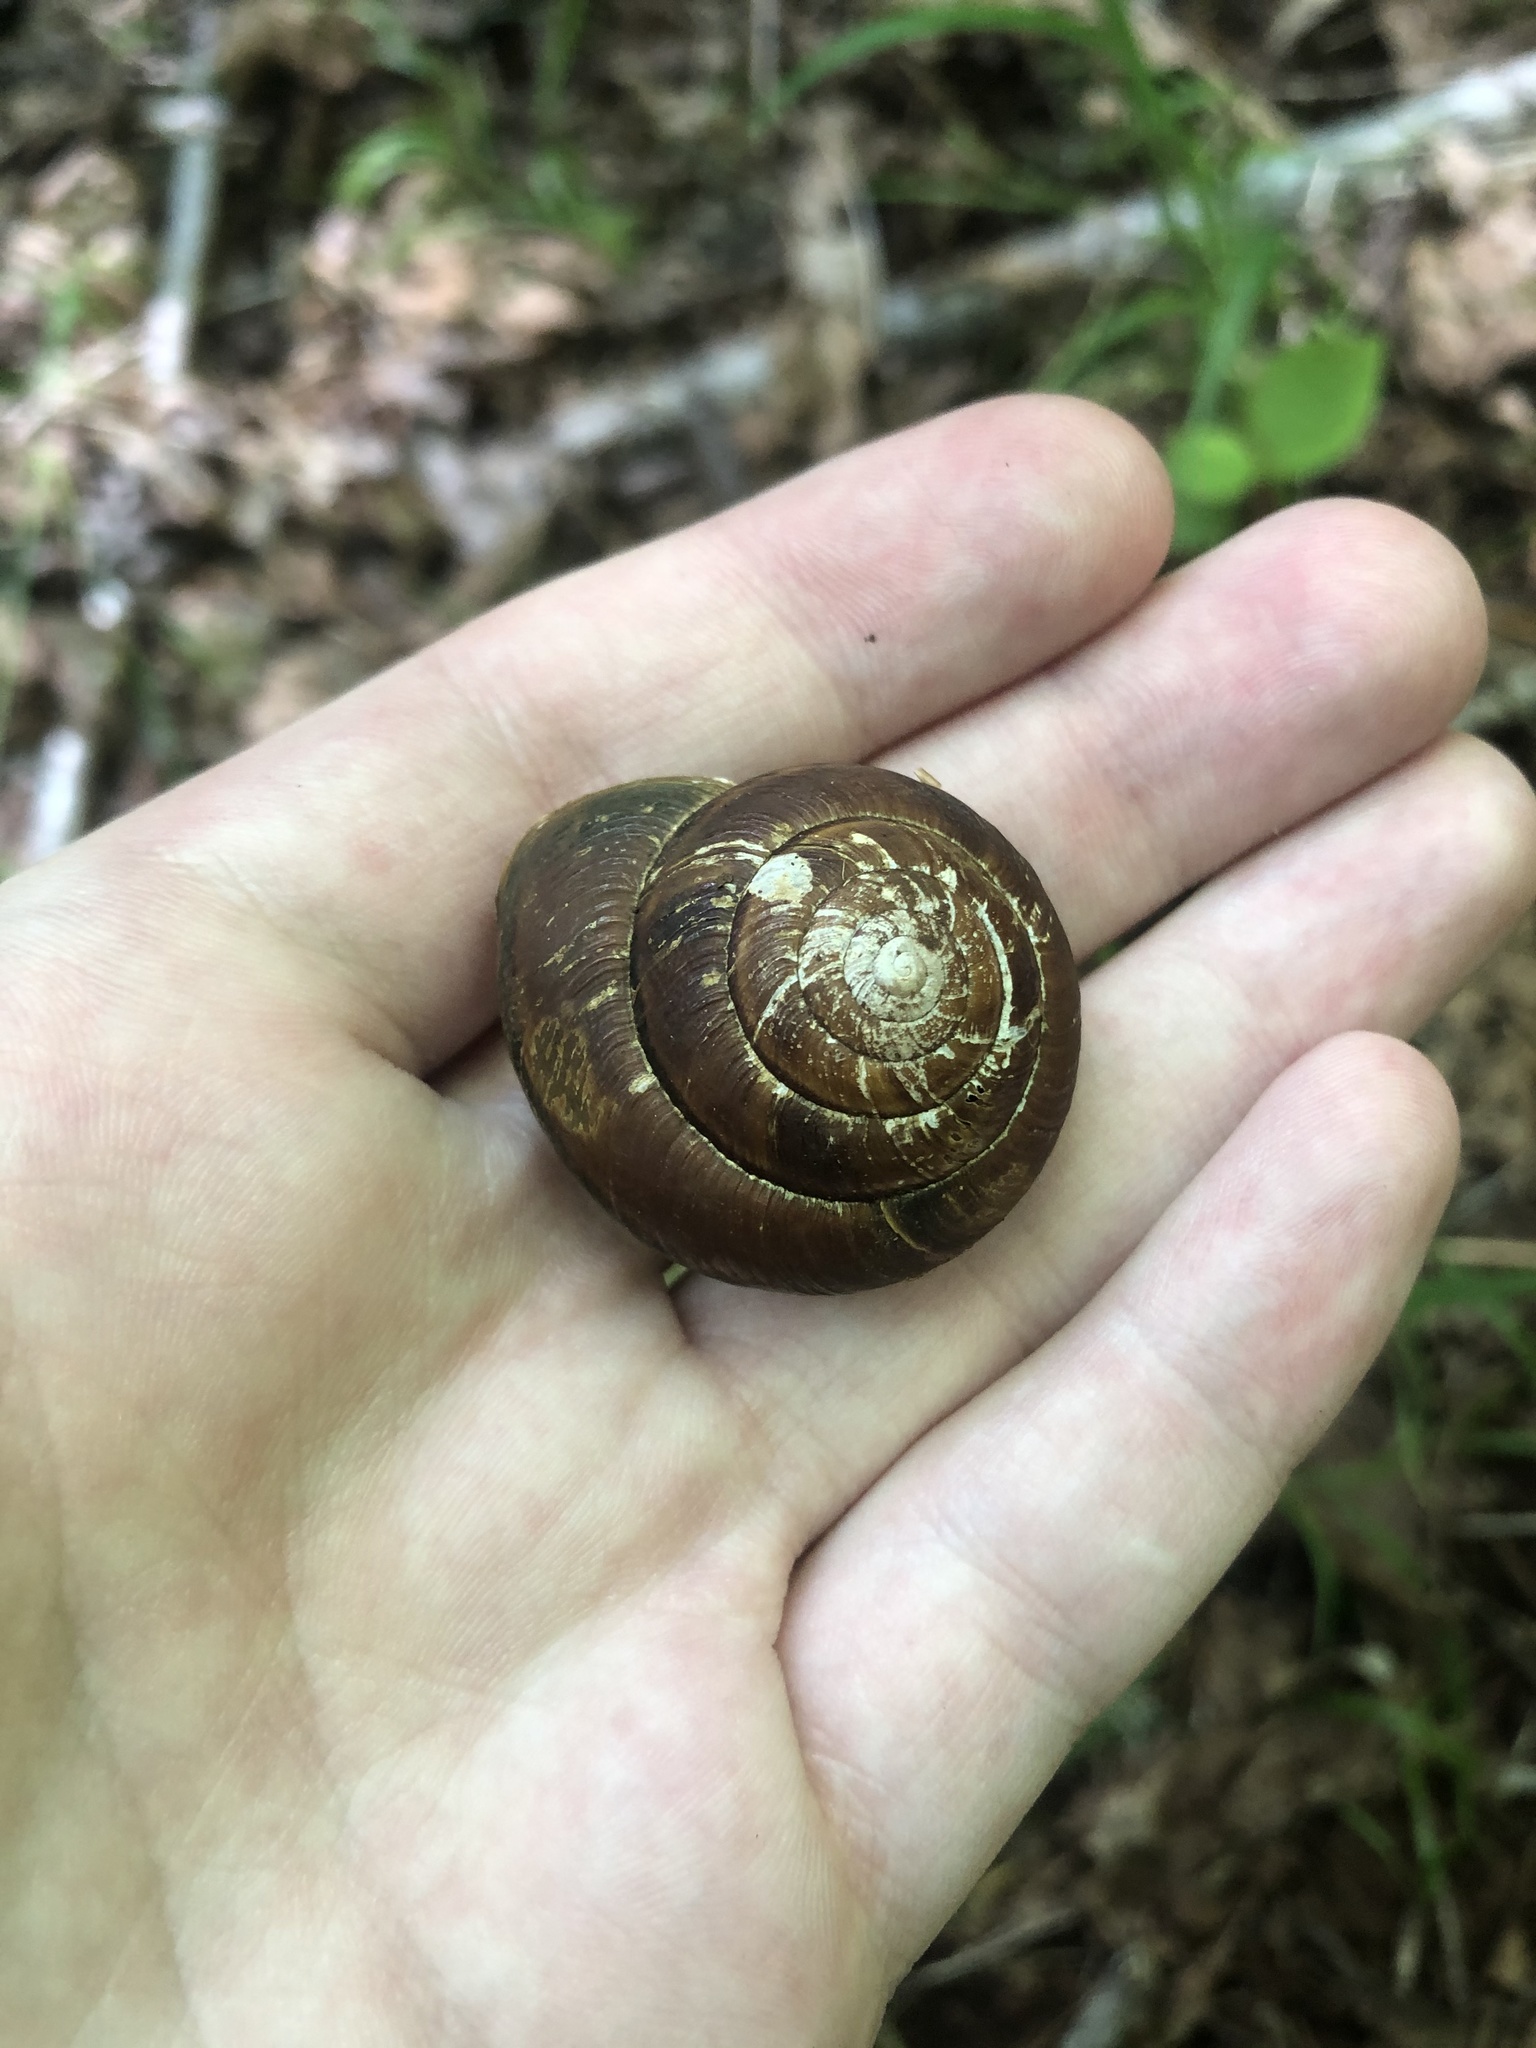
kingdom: Animalia
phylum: Mollusca
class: Gastropoda
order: Stylommatophora
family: Xanthonychidae
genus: Monadenia
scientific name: Monadenia fidelis
